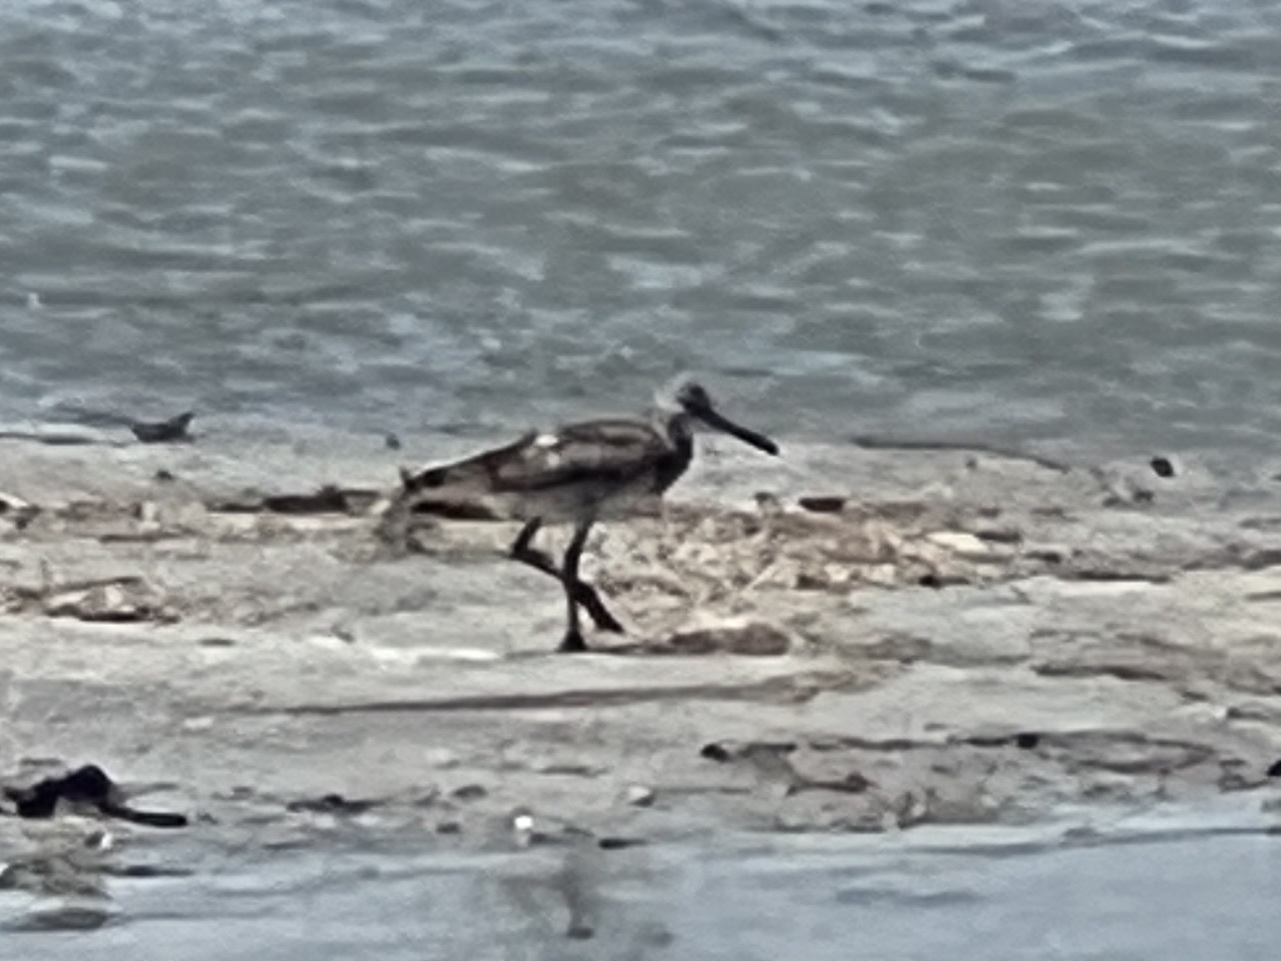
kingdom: Animalia
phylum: Chordata
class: Aves
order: Charadriiformes
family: Scolopacidae
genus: Tringa
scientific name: Tringa semipalmata
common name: Willet
